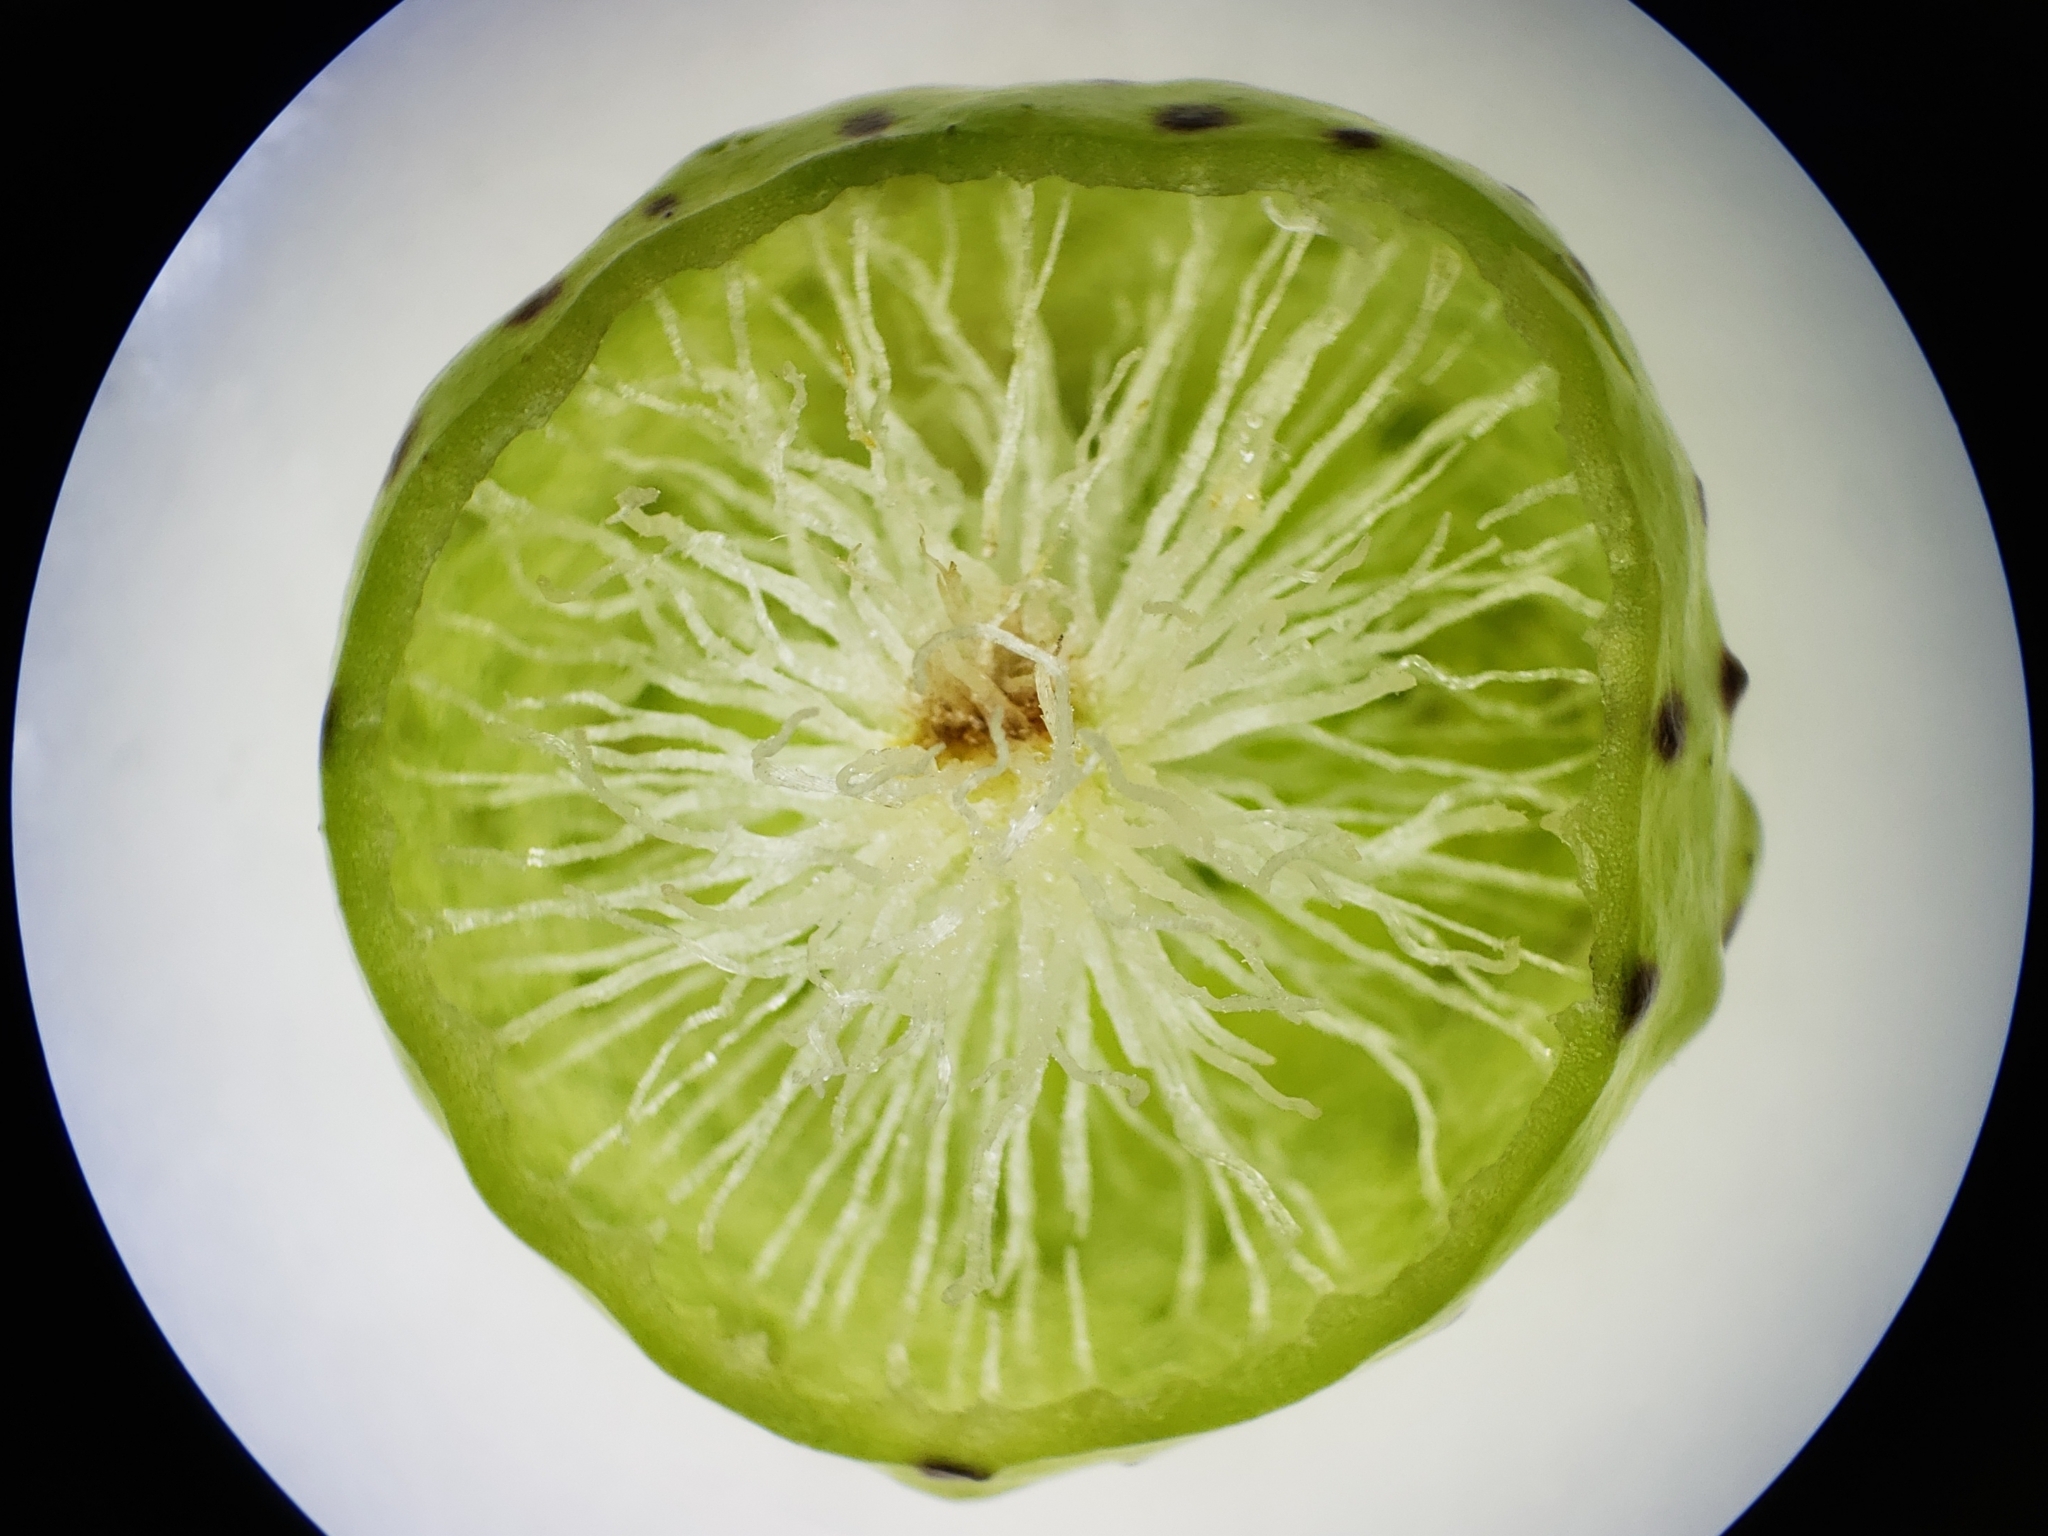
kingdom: Animalia
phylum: Arthropoda
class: Insecta
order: Hymenoptera
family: Cynipidae
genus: Amphibolips
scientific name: Amphibolips
